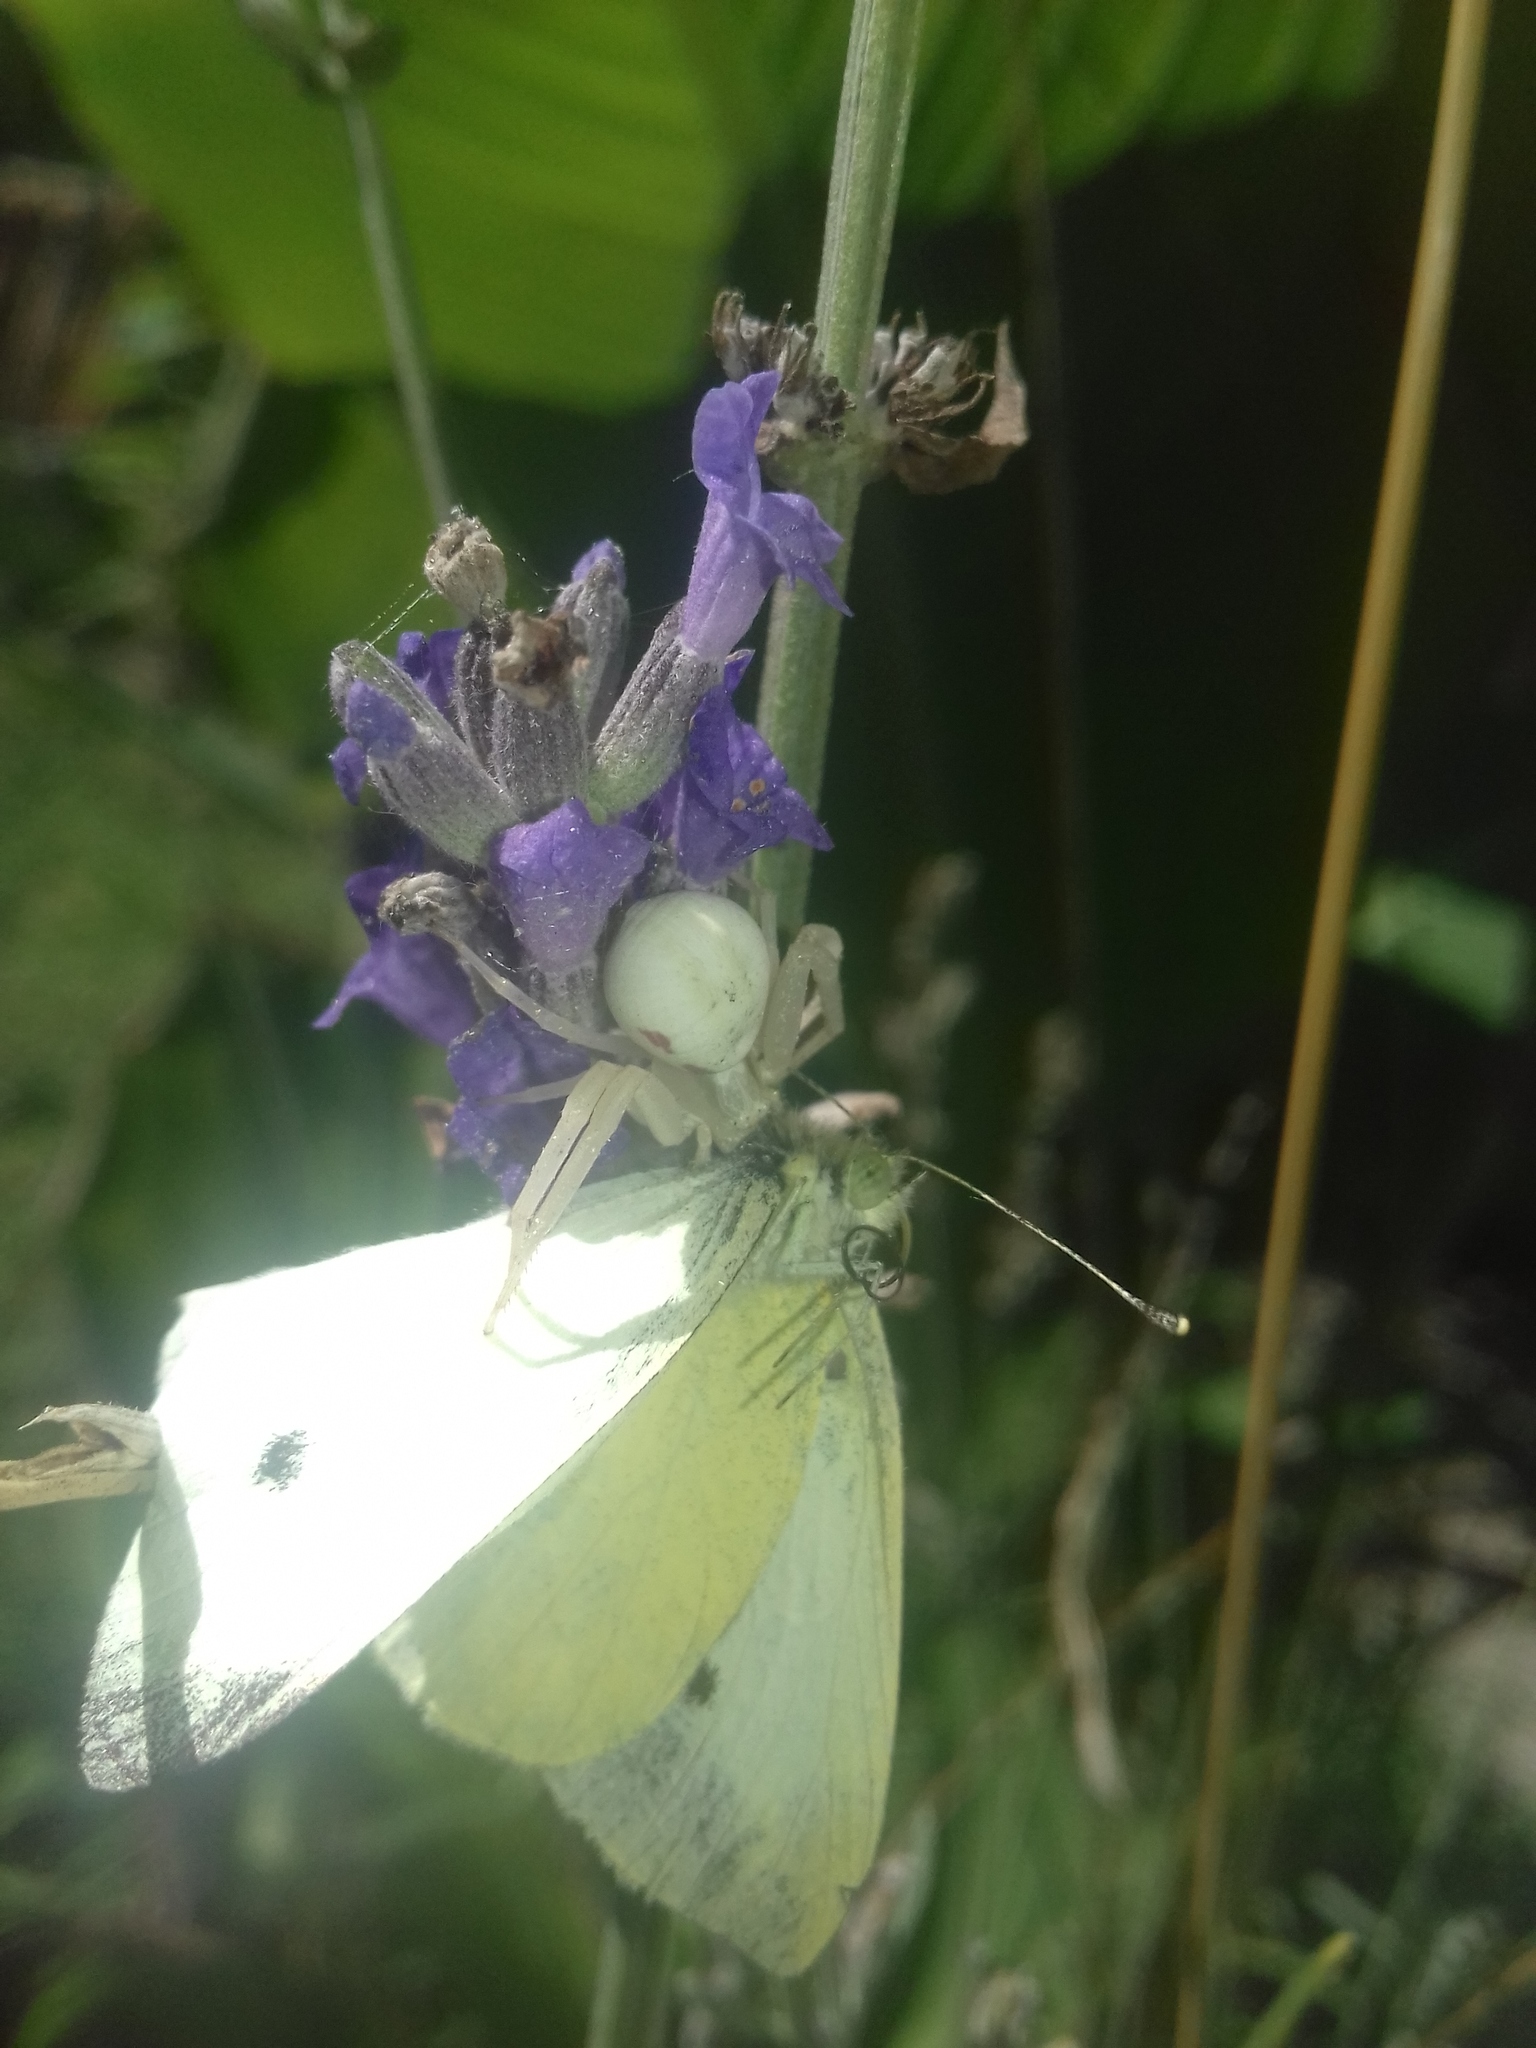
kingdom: Animalia
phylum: Arthropoda
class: Arachnida
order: Araneae
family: Thomisidae
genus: Misumena
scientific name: Misumena vatia
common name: Goldenrod crab spider
